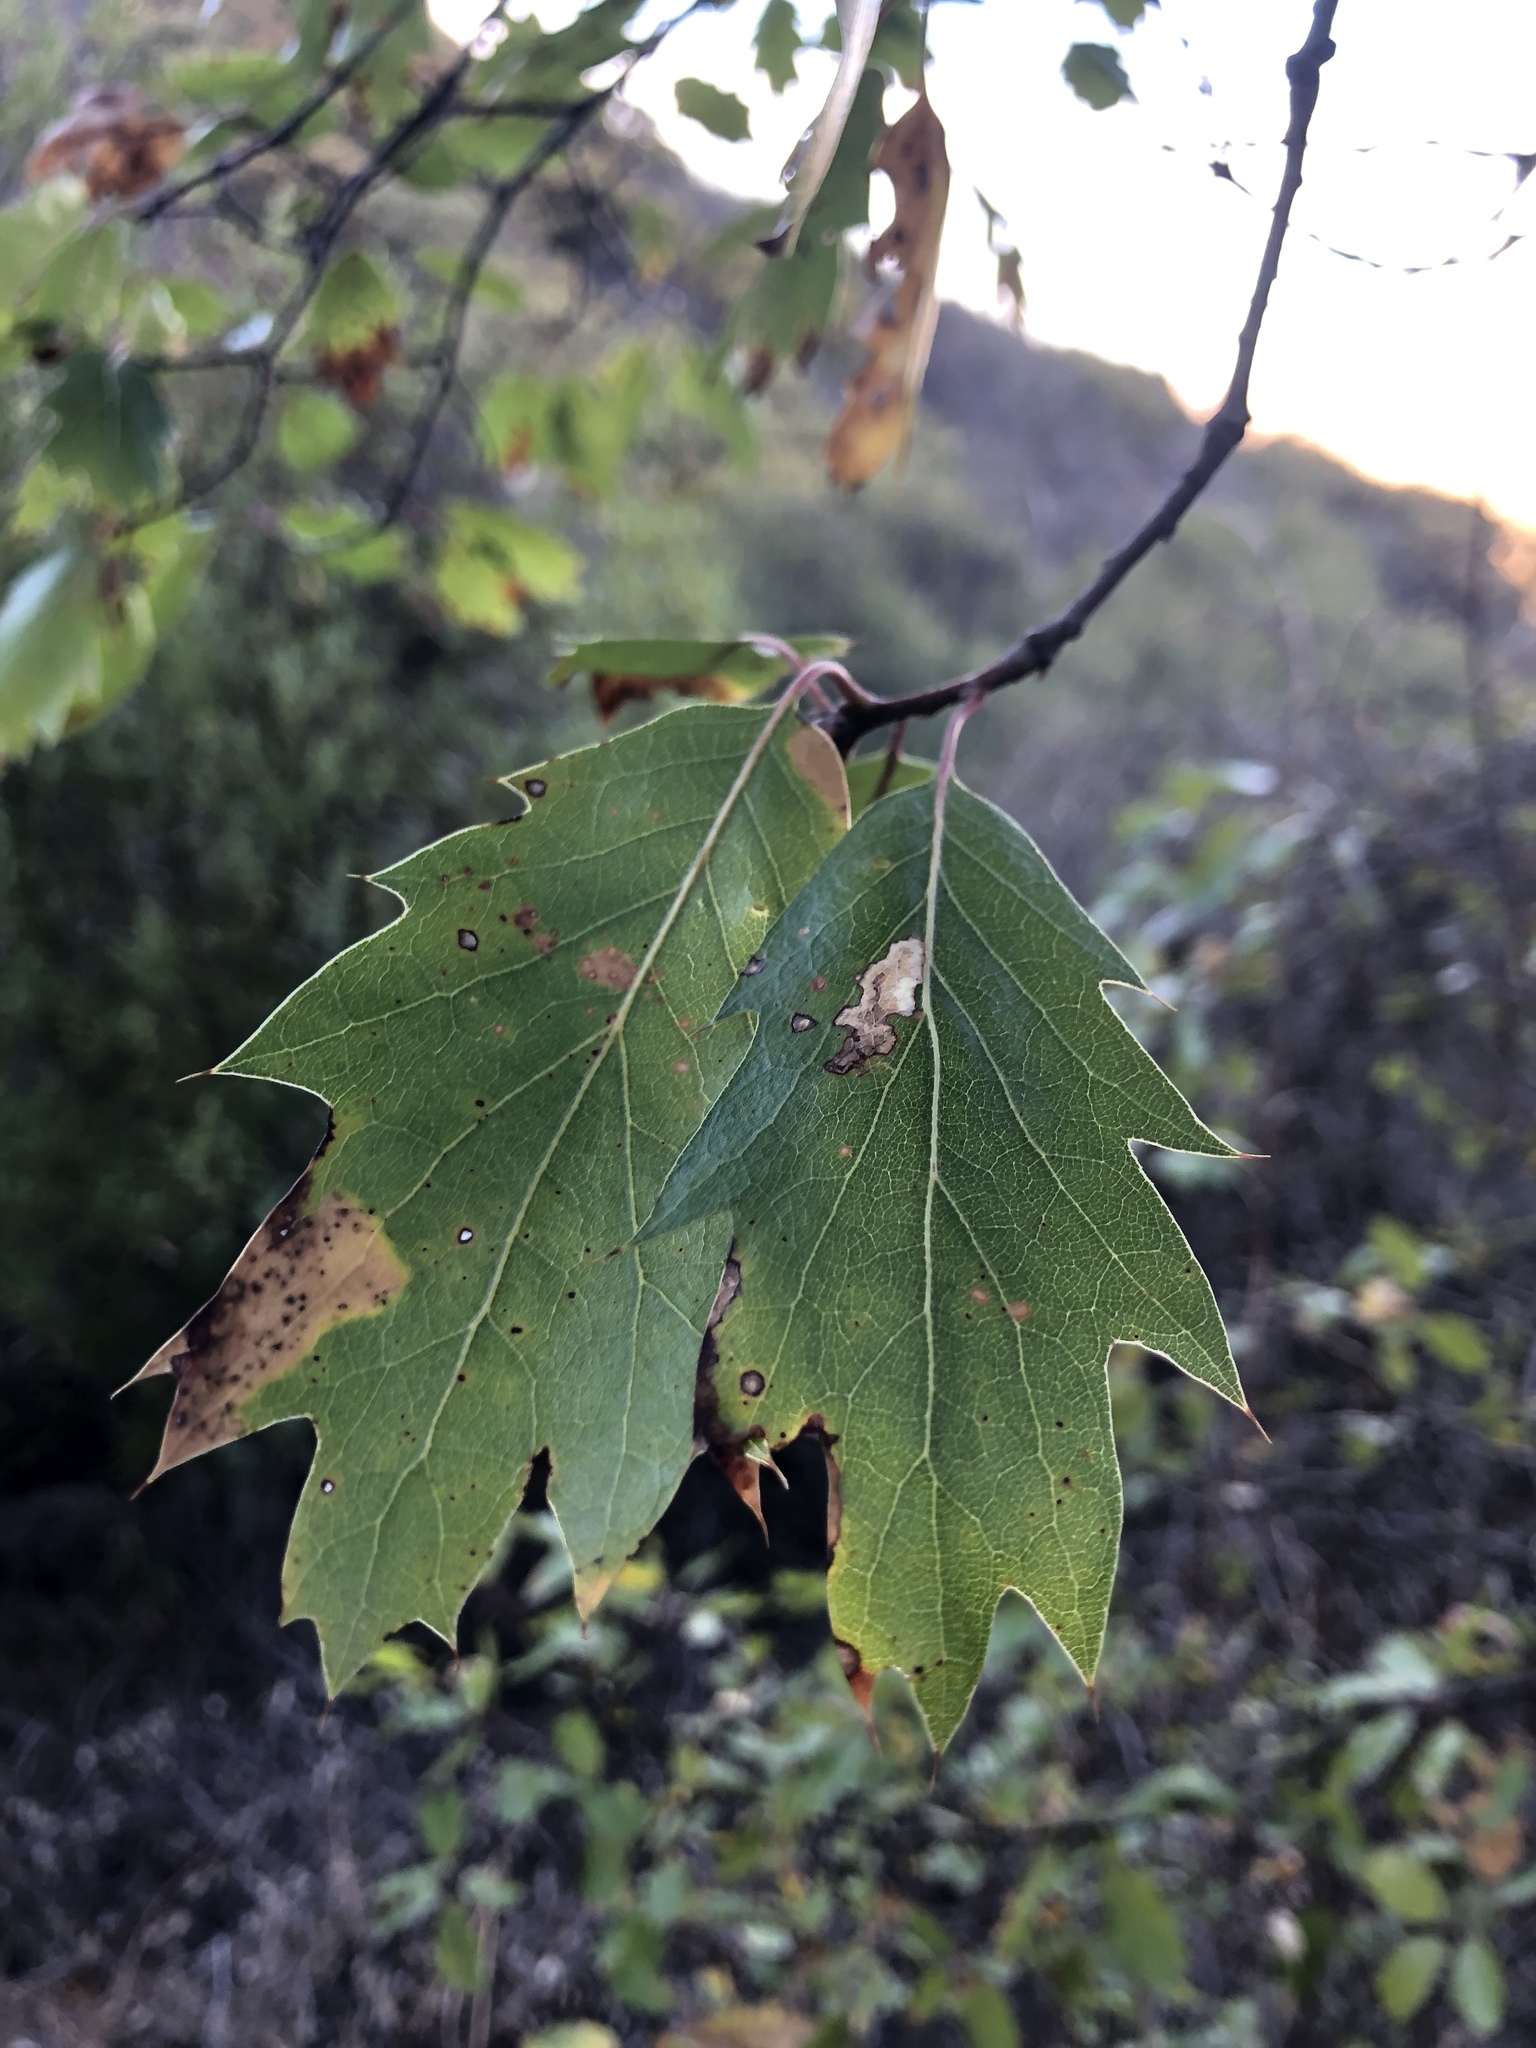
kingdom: Plantae
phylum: Tracheophyta
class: Magnoliopsida
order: Fagales
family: Fagaceae
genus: Quercus
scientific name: Quercus morehus
